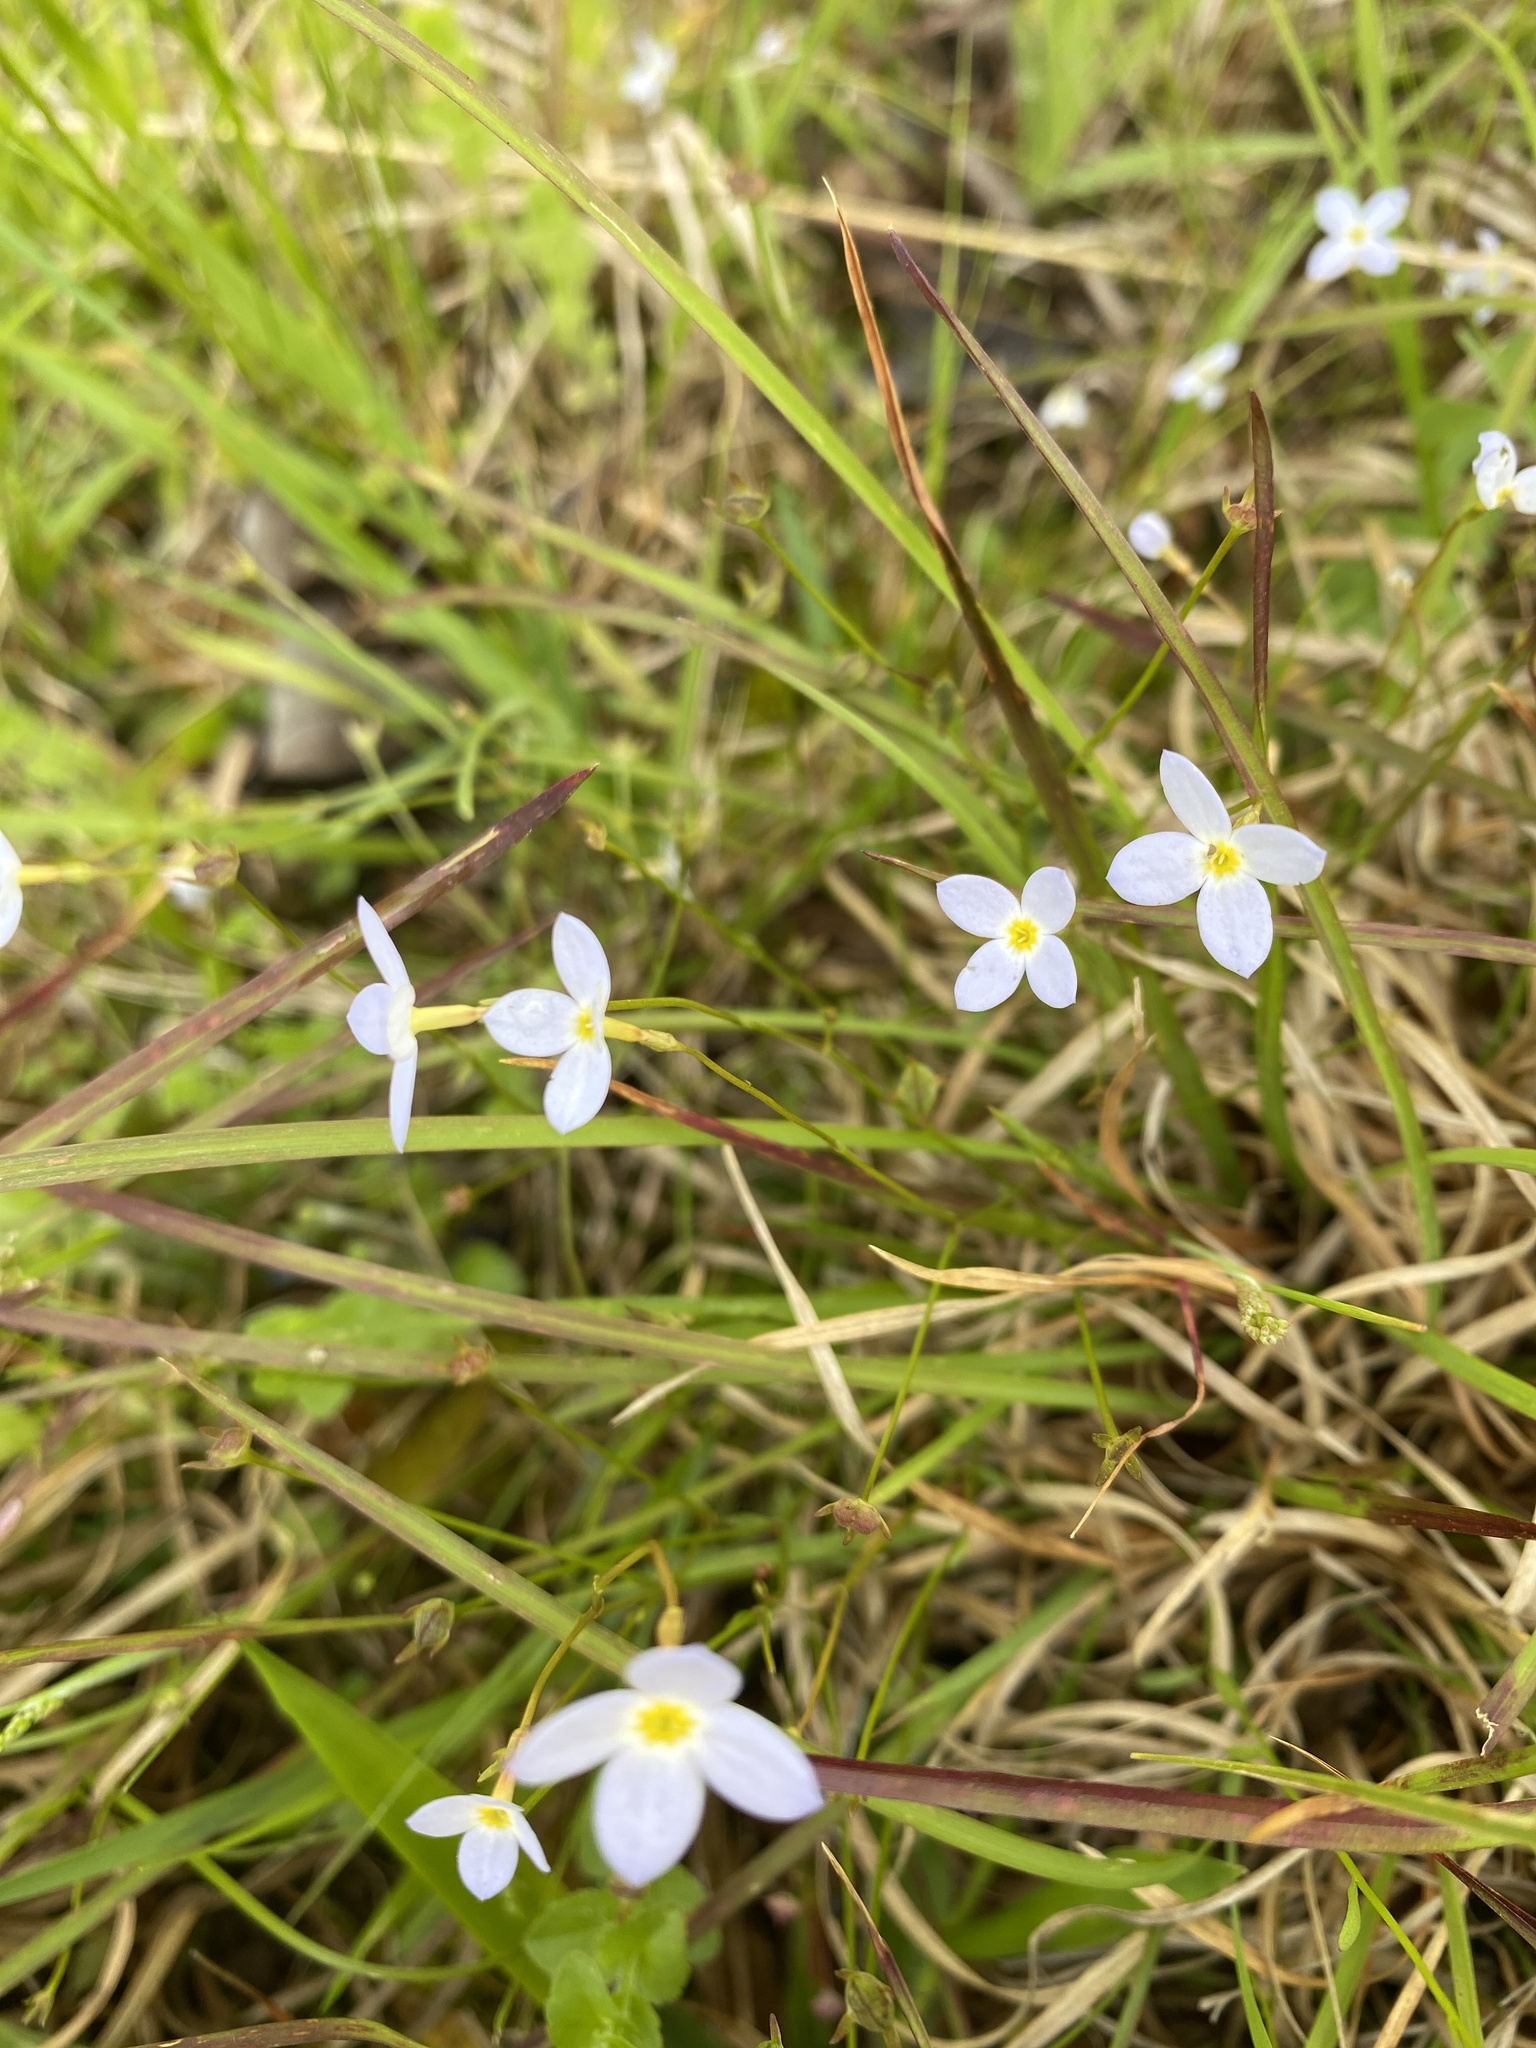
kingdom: Plantae
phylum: Tracheophyta
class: Magnoliopsida
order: Gentianales
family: Rubiaceae
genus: Houstonia
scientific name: Houstonia caerulea
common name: Bluets
